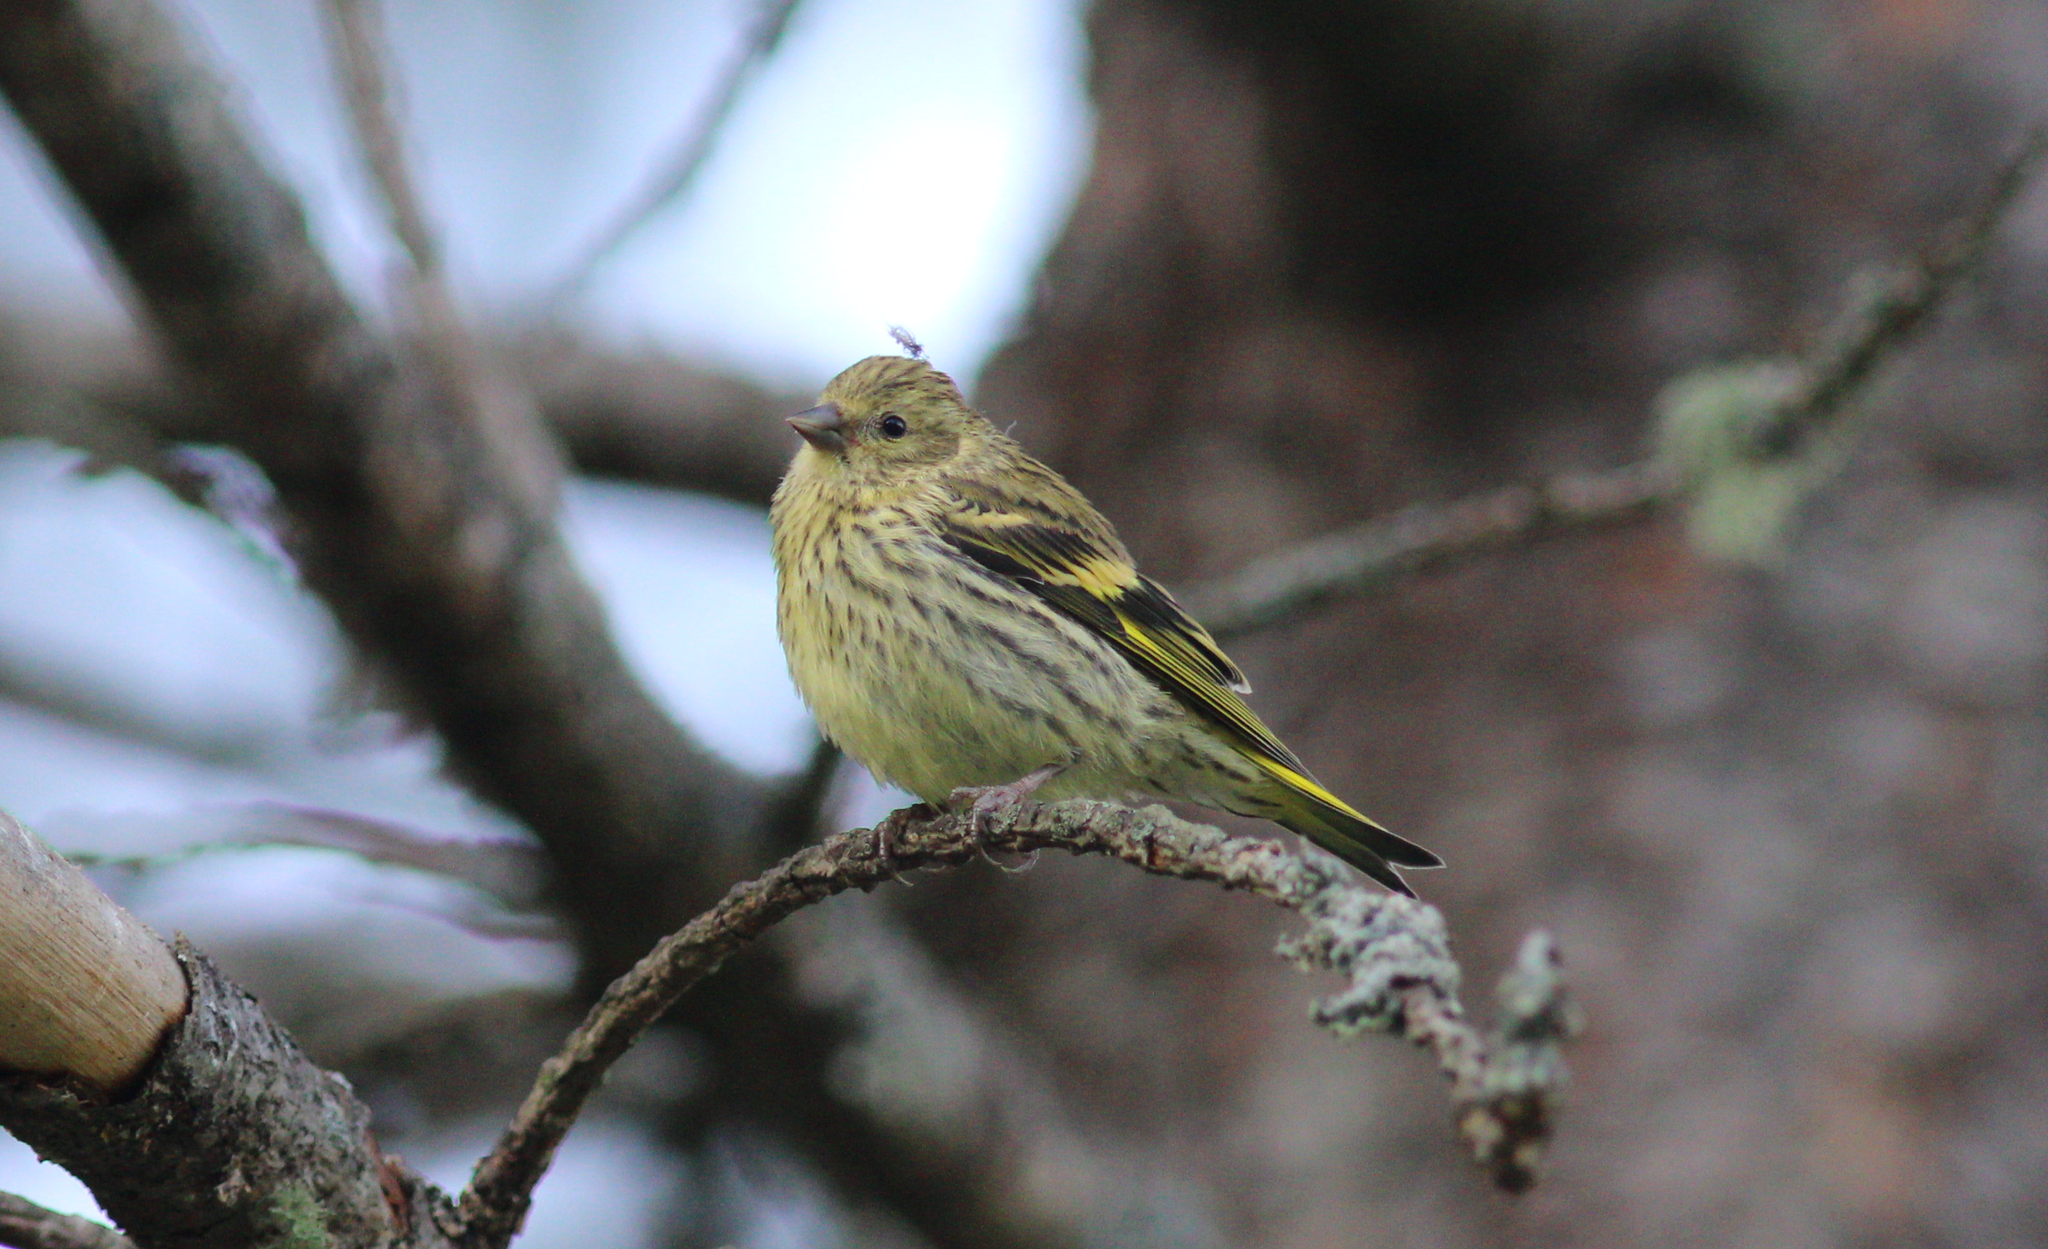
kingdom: Animalia
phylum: Chordata
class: Aves
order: Passeriformes
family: Fringillidae
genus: Spinus
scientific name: Spinus spinus
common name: Eurasian siskin
